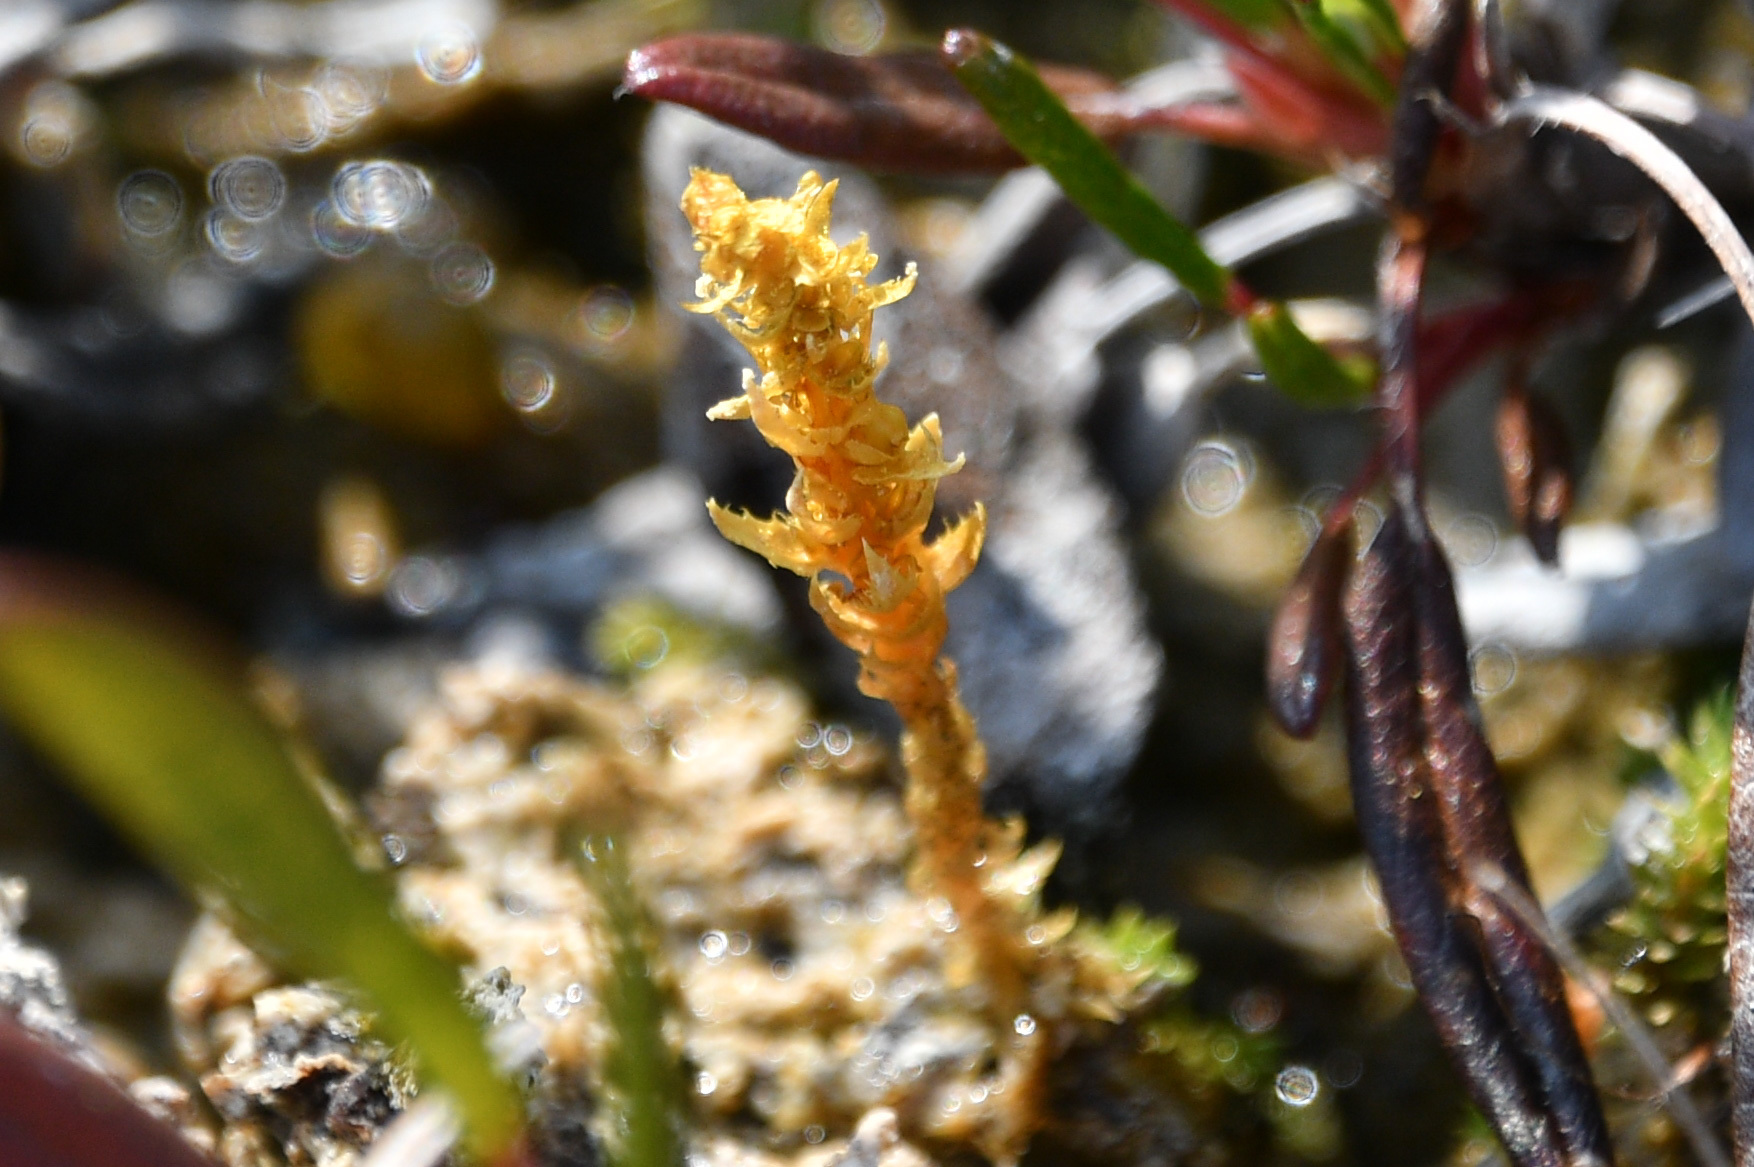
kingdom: Plantae
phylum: Tracheophyta
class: Lycopodiopsida
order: Selaginellales
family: Selaginellaceae
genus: Selaginella
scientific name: Selaginella selaginoides
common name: Prickly mountain-moss
